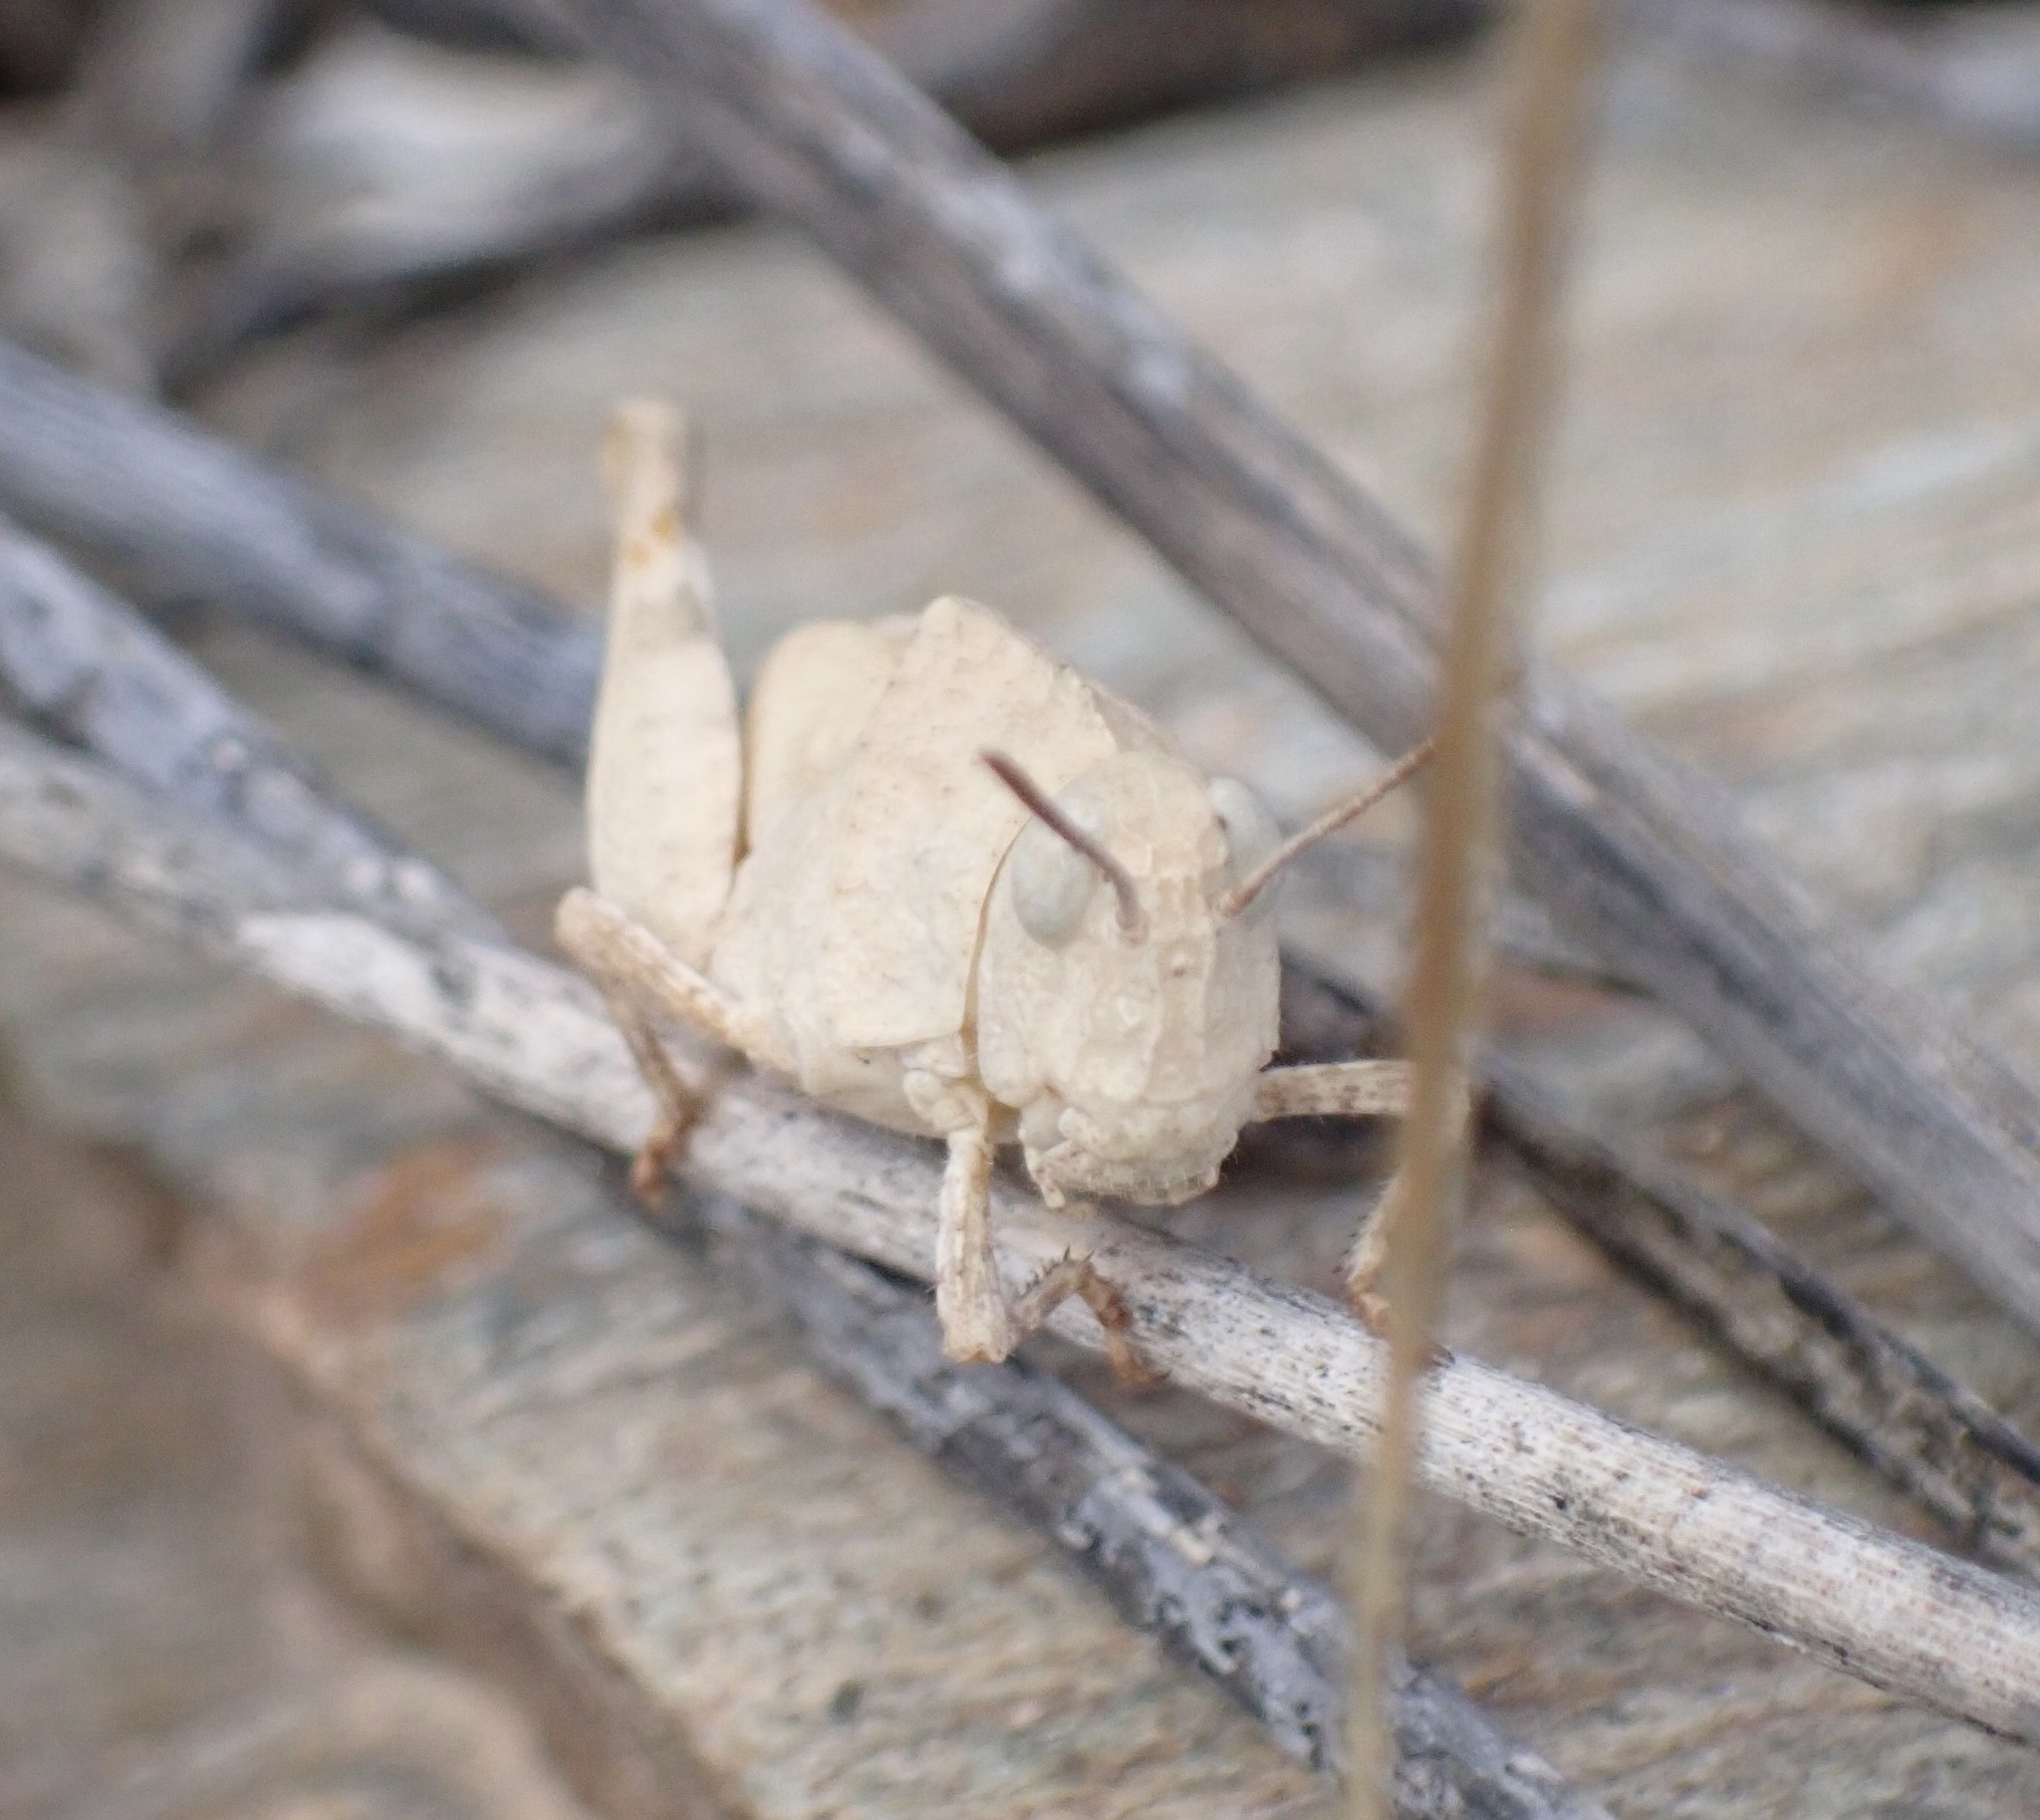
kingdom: Animalia
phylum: Arthropoda
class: Insecta
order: Orthoptera
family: Acrididae
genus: Oedipoda
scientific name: Oedipoda
